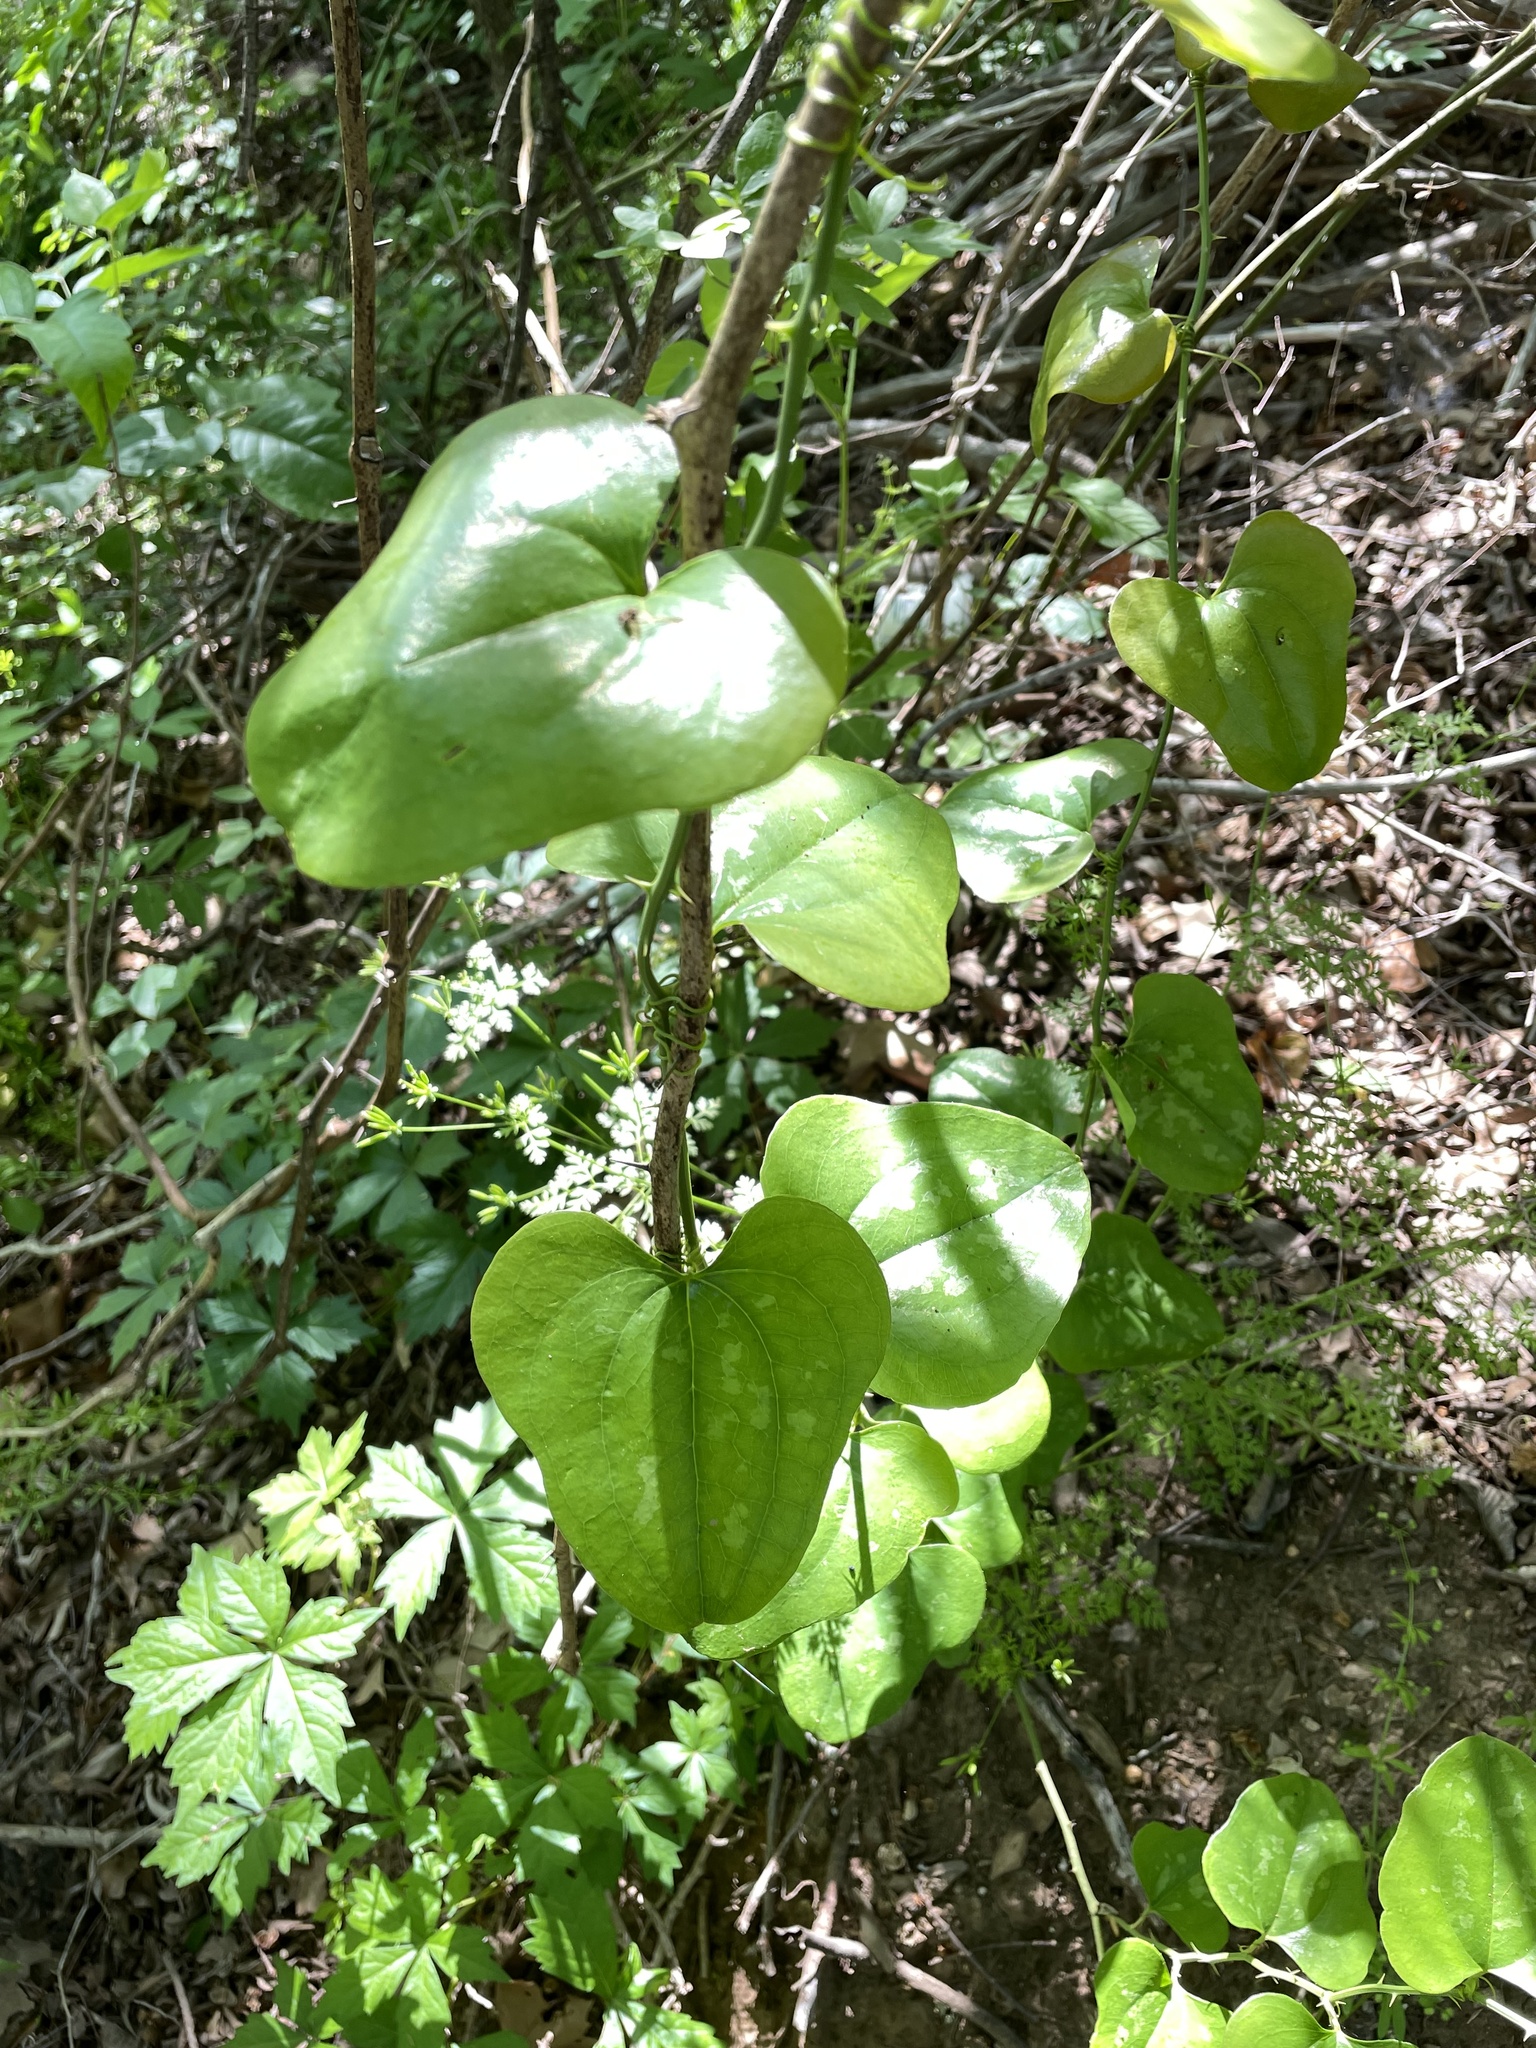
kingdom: Plantae
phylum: Tracheophyta
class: Liliopsida
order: Liliales
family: Smilacaceae
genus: Smilax
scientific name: Smilax bona-nox
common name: Catbrier
